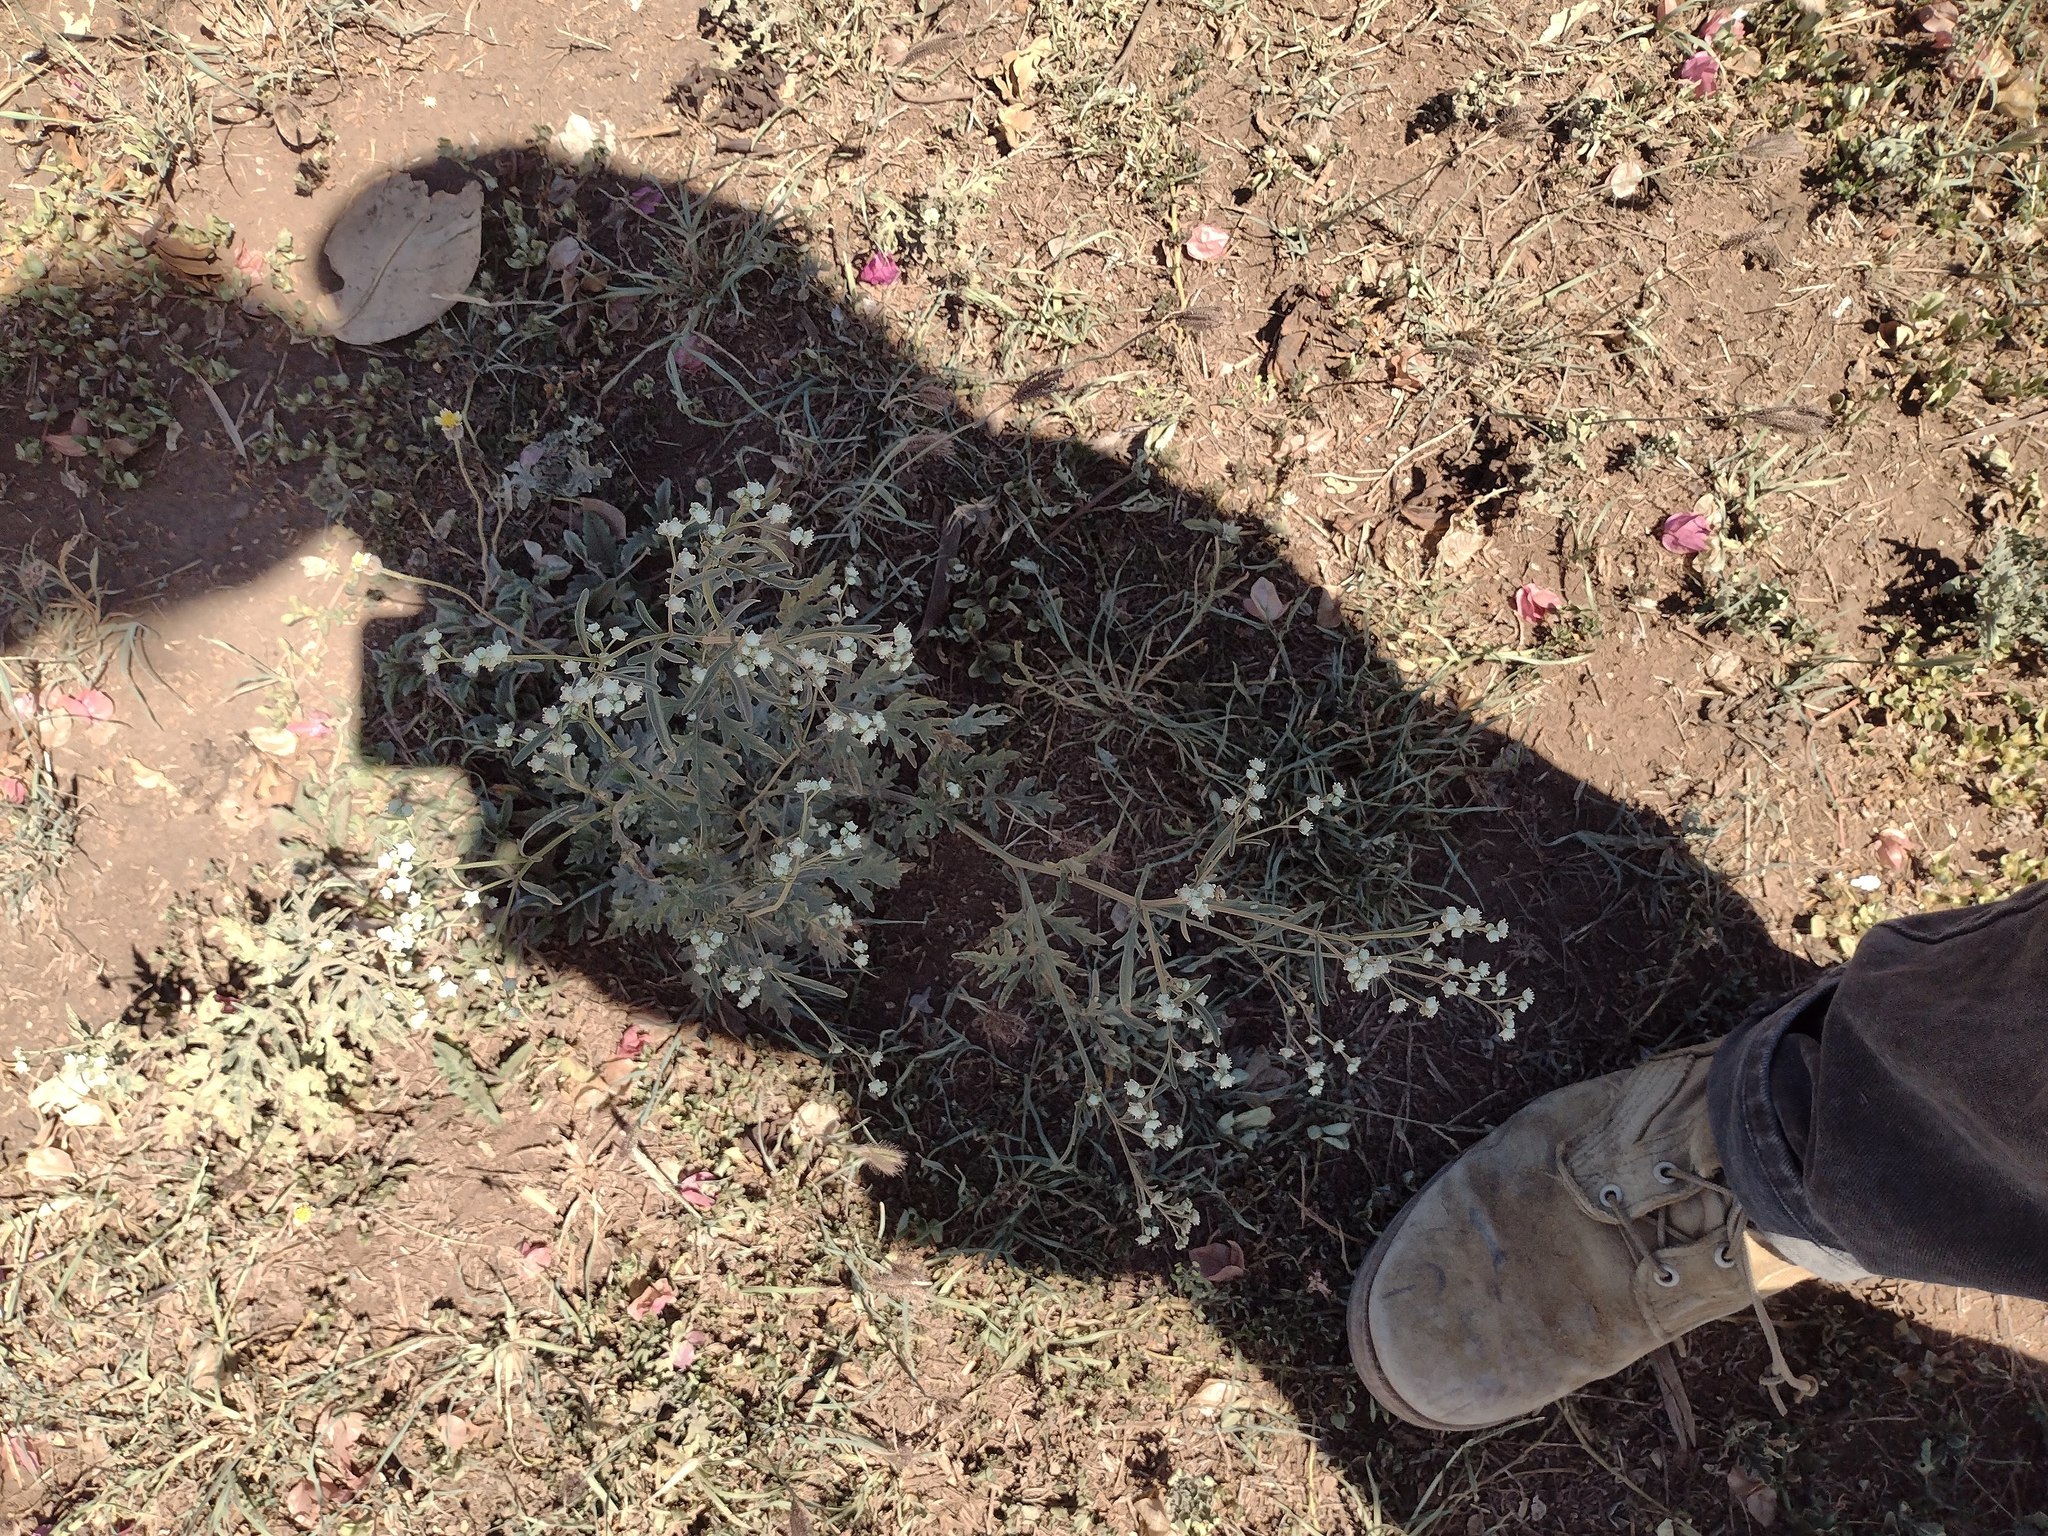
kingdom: Plantae
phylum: Tracheophyta
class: Magnoliopsida
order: Asterales
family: Asteraceae
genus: Parthenium
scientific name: Parthenium hysterophorus
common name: Santa maria feverfew
